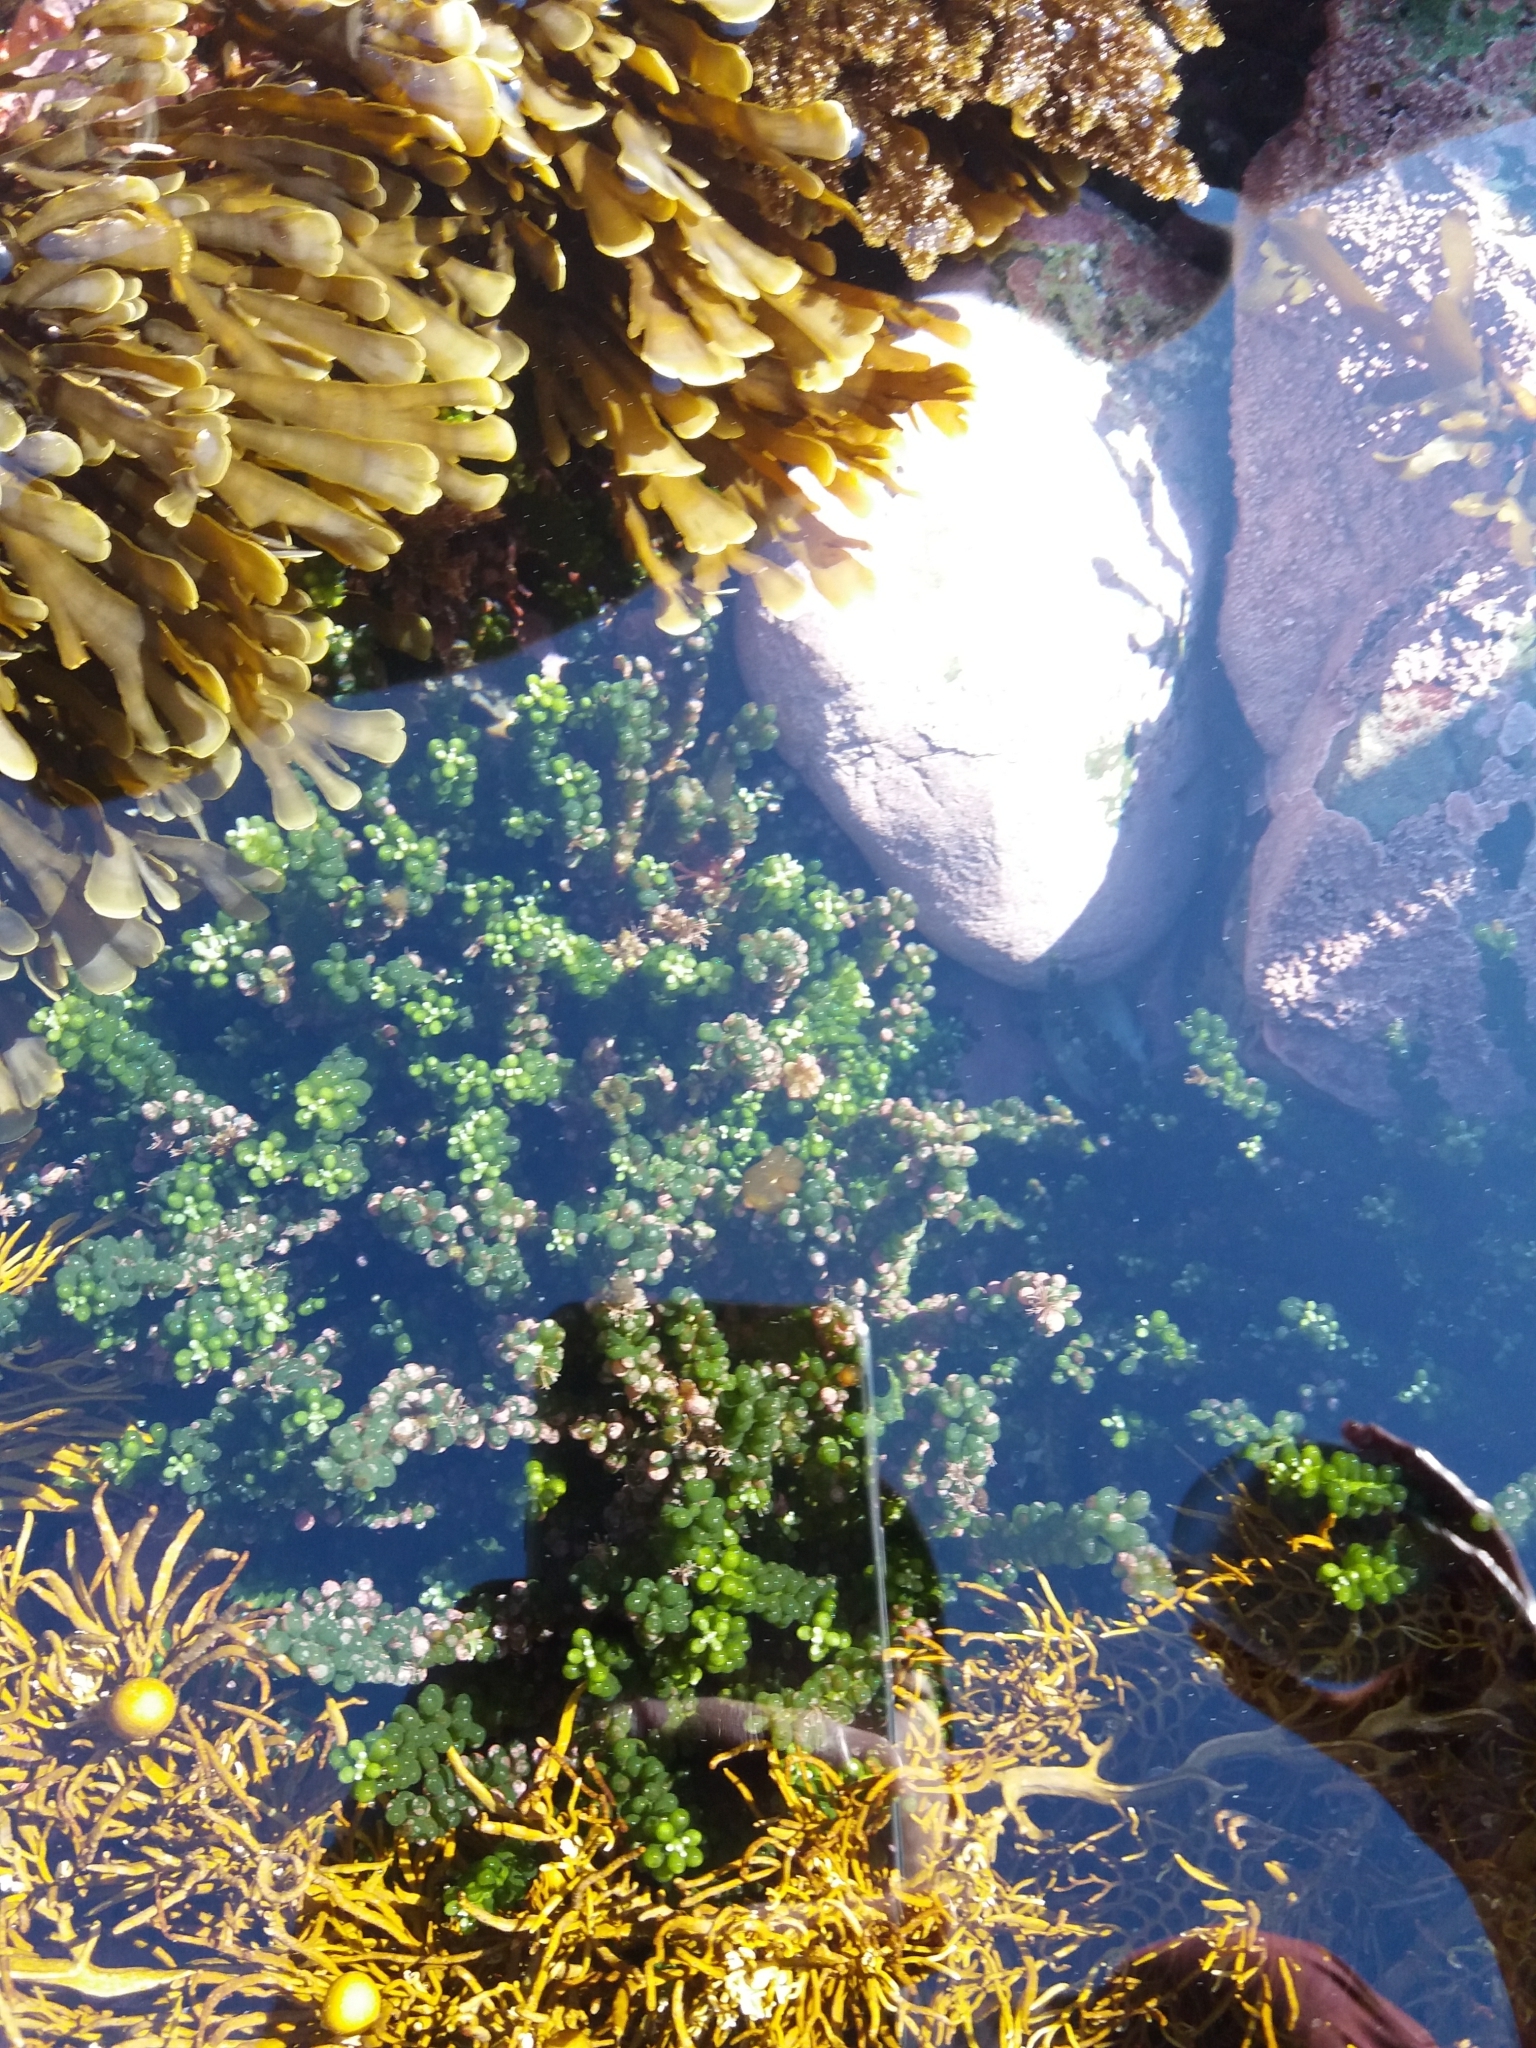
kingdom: Plantae
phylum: Chlorophyta
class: Ulvophyceae
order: Bryopsidales
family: Caulerpaceae
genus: Caulerpa
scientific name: Caulerpa geminata
